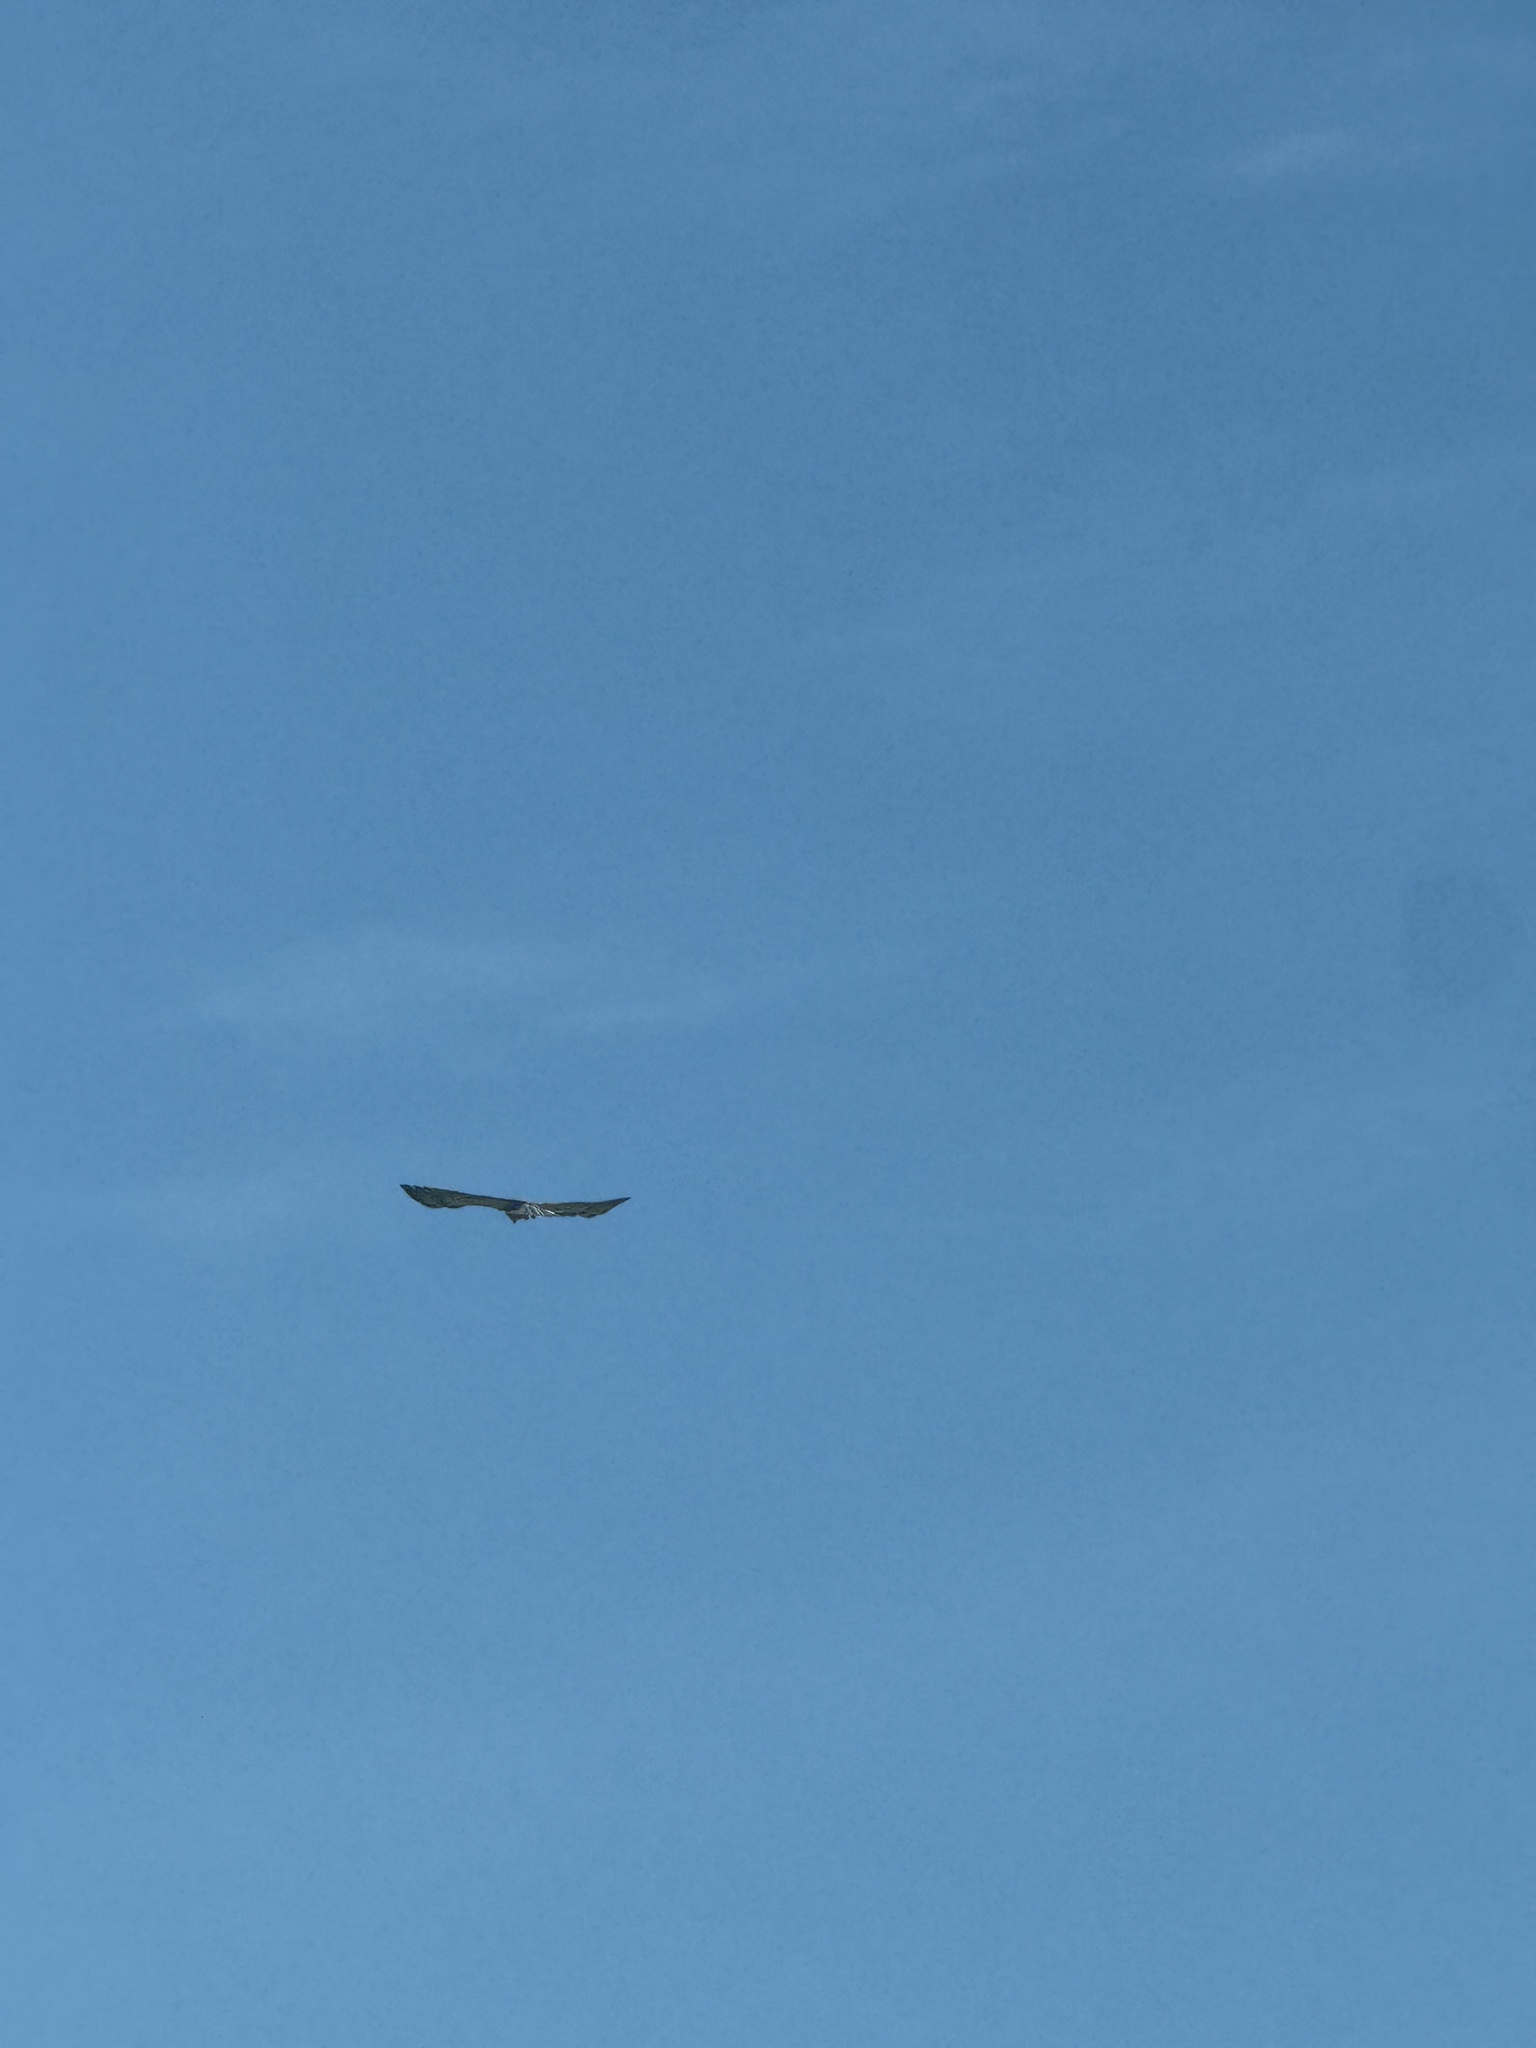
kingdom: Animalia
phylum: Chordata
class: Aves
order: Accipitriformes
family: Accipitridae
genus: Buteo
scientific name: Buteo jamaicensis
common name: Red-tailed hawk
